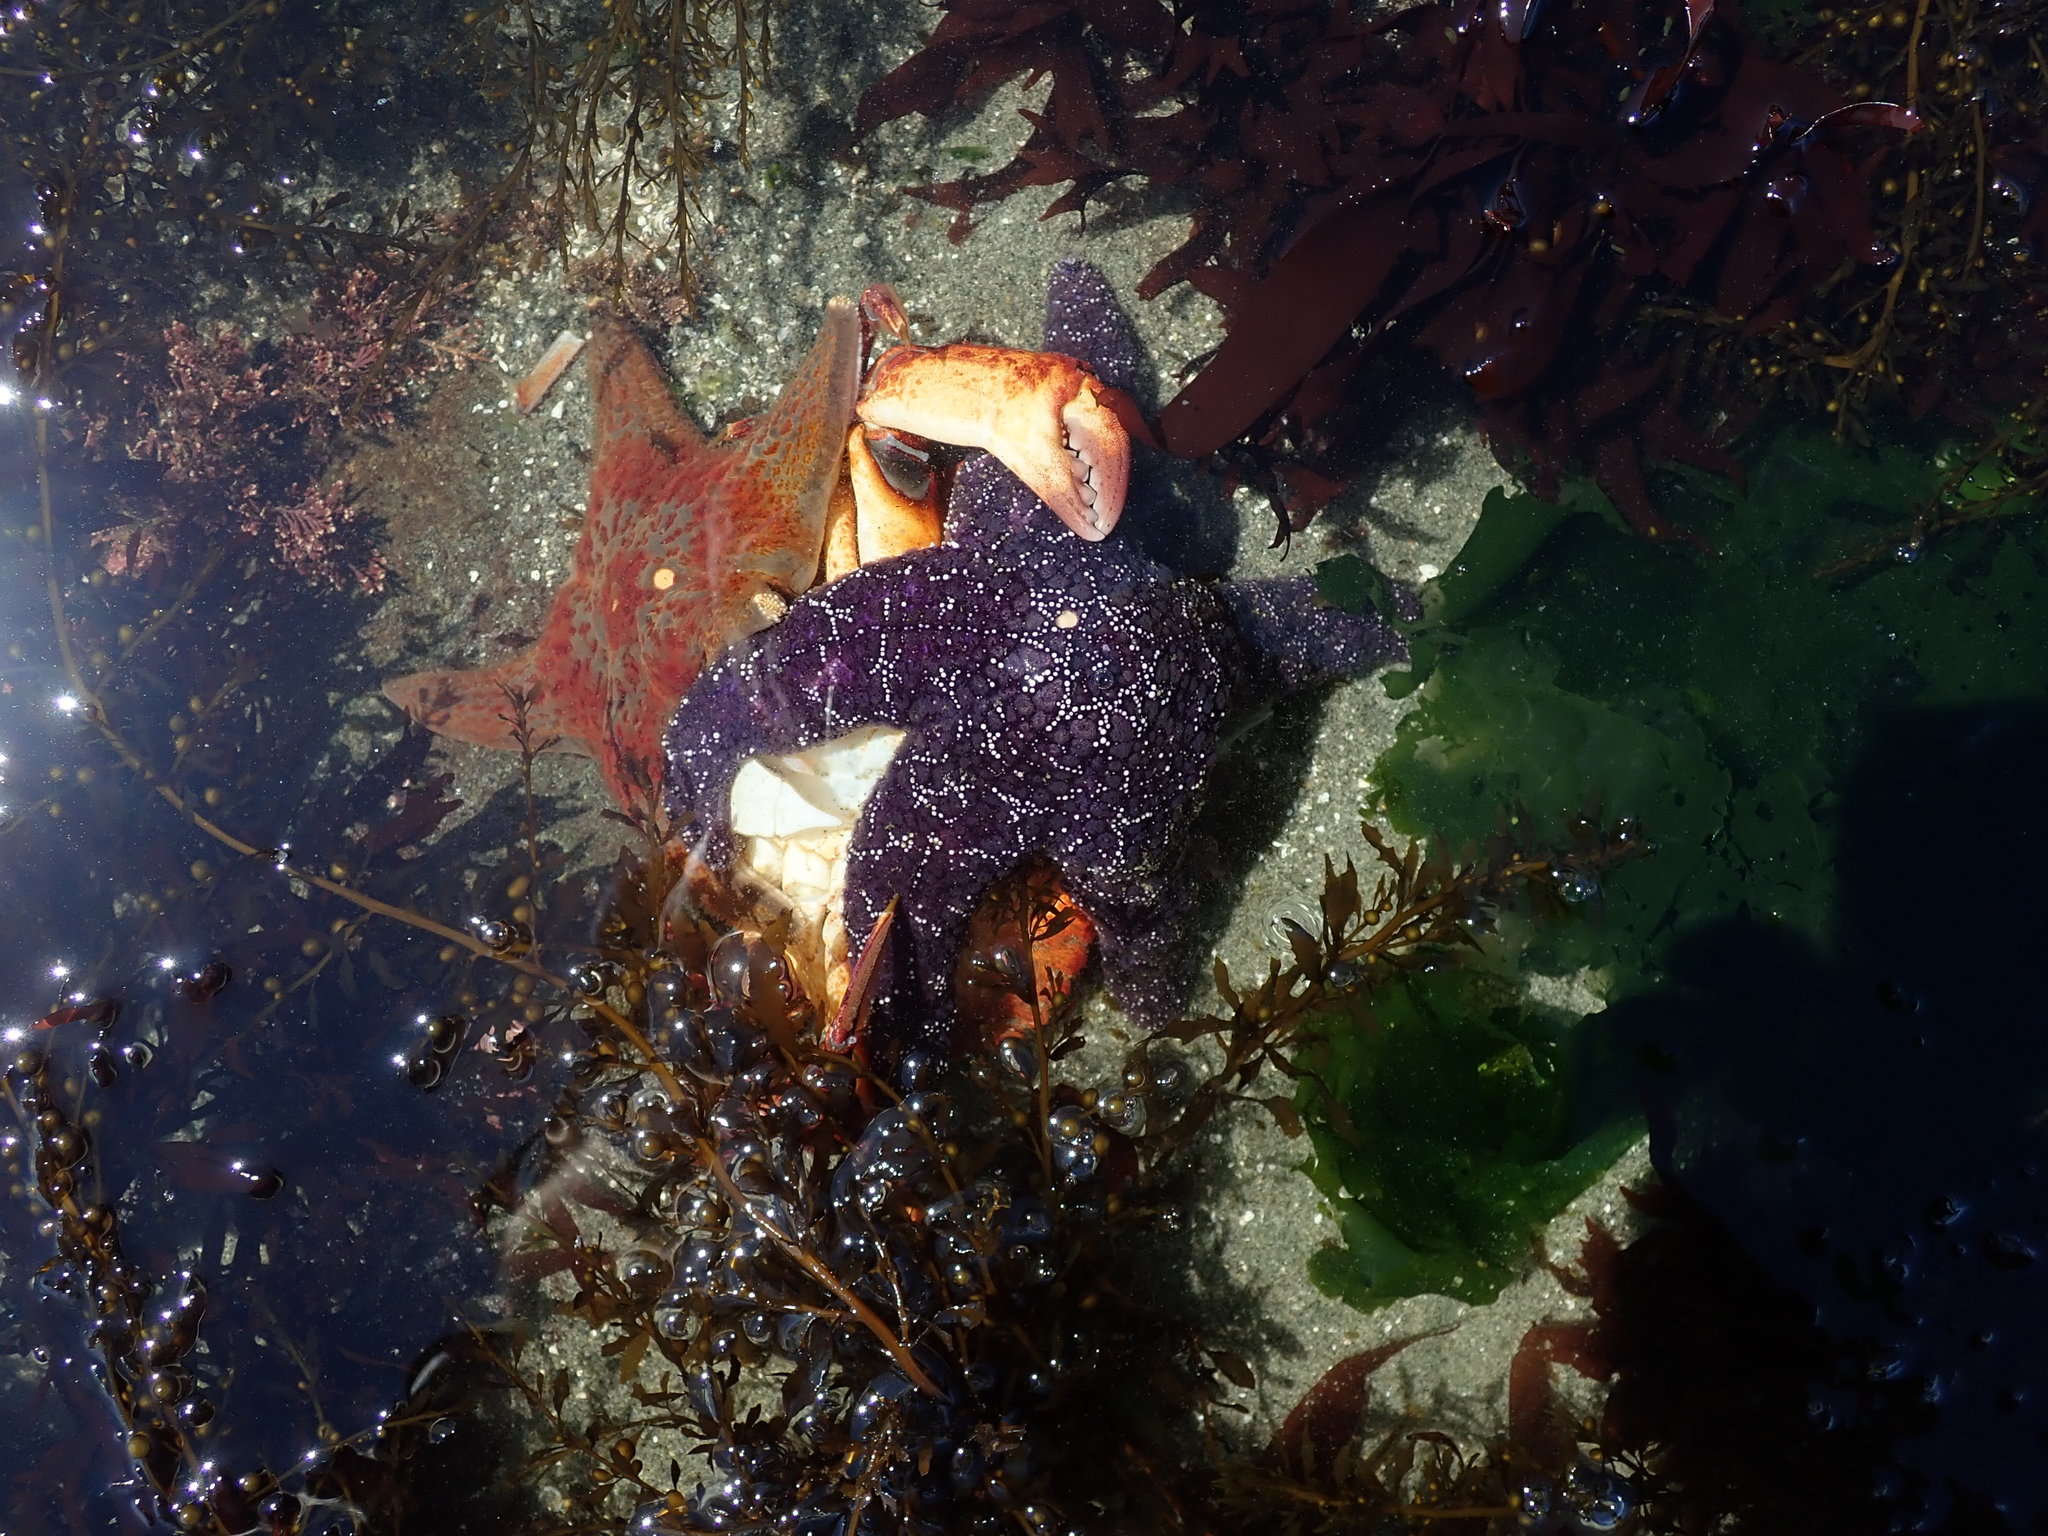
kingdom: Animalia
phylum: Echinodermata
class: Asteroidea
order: Forcipulatida
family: Asteriidae
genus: Pisaster
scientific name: Pisaster ochraceus
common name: Ochre stars
